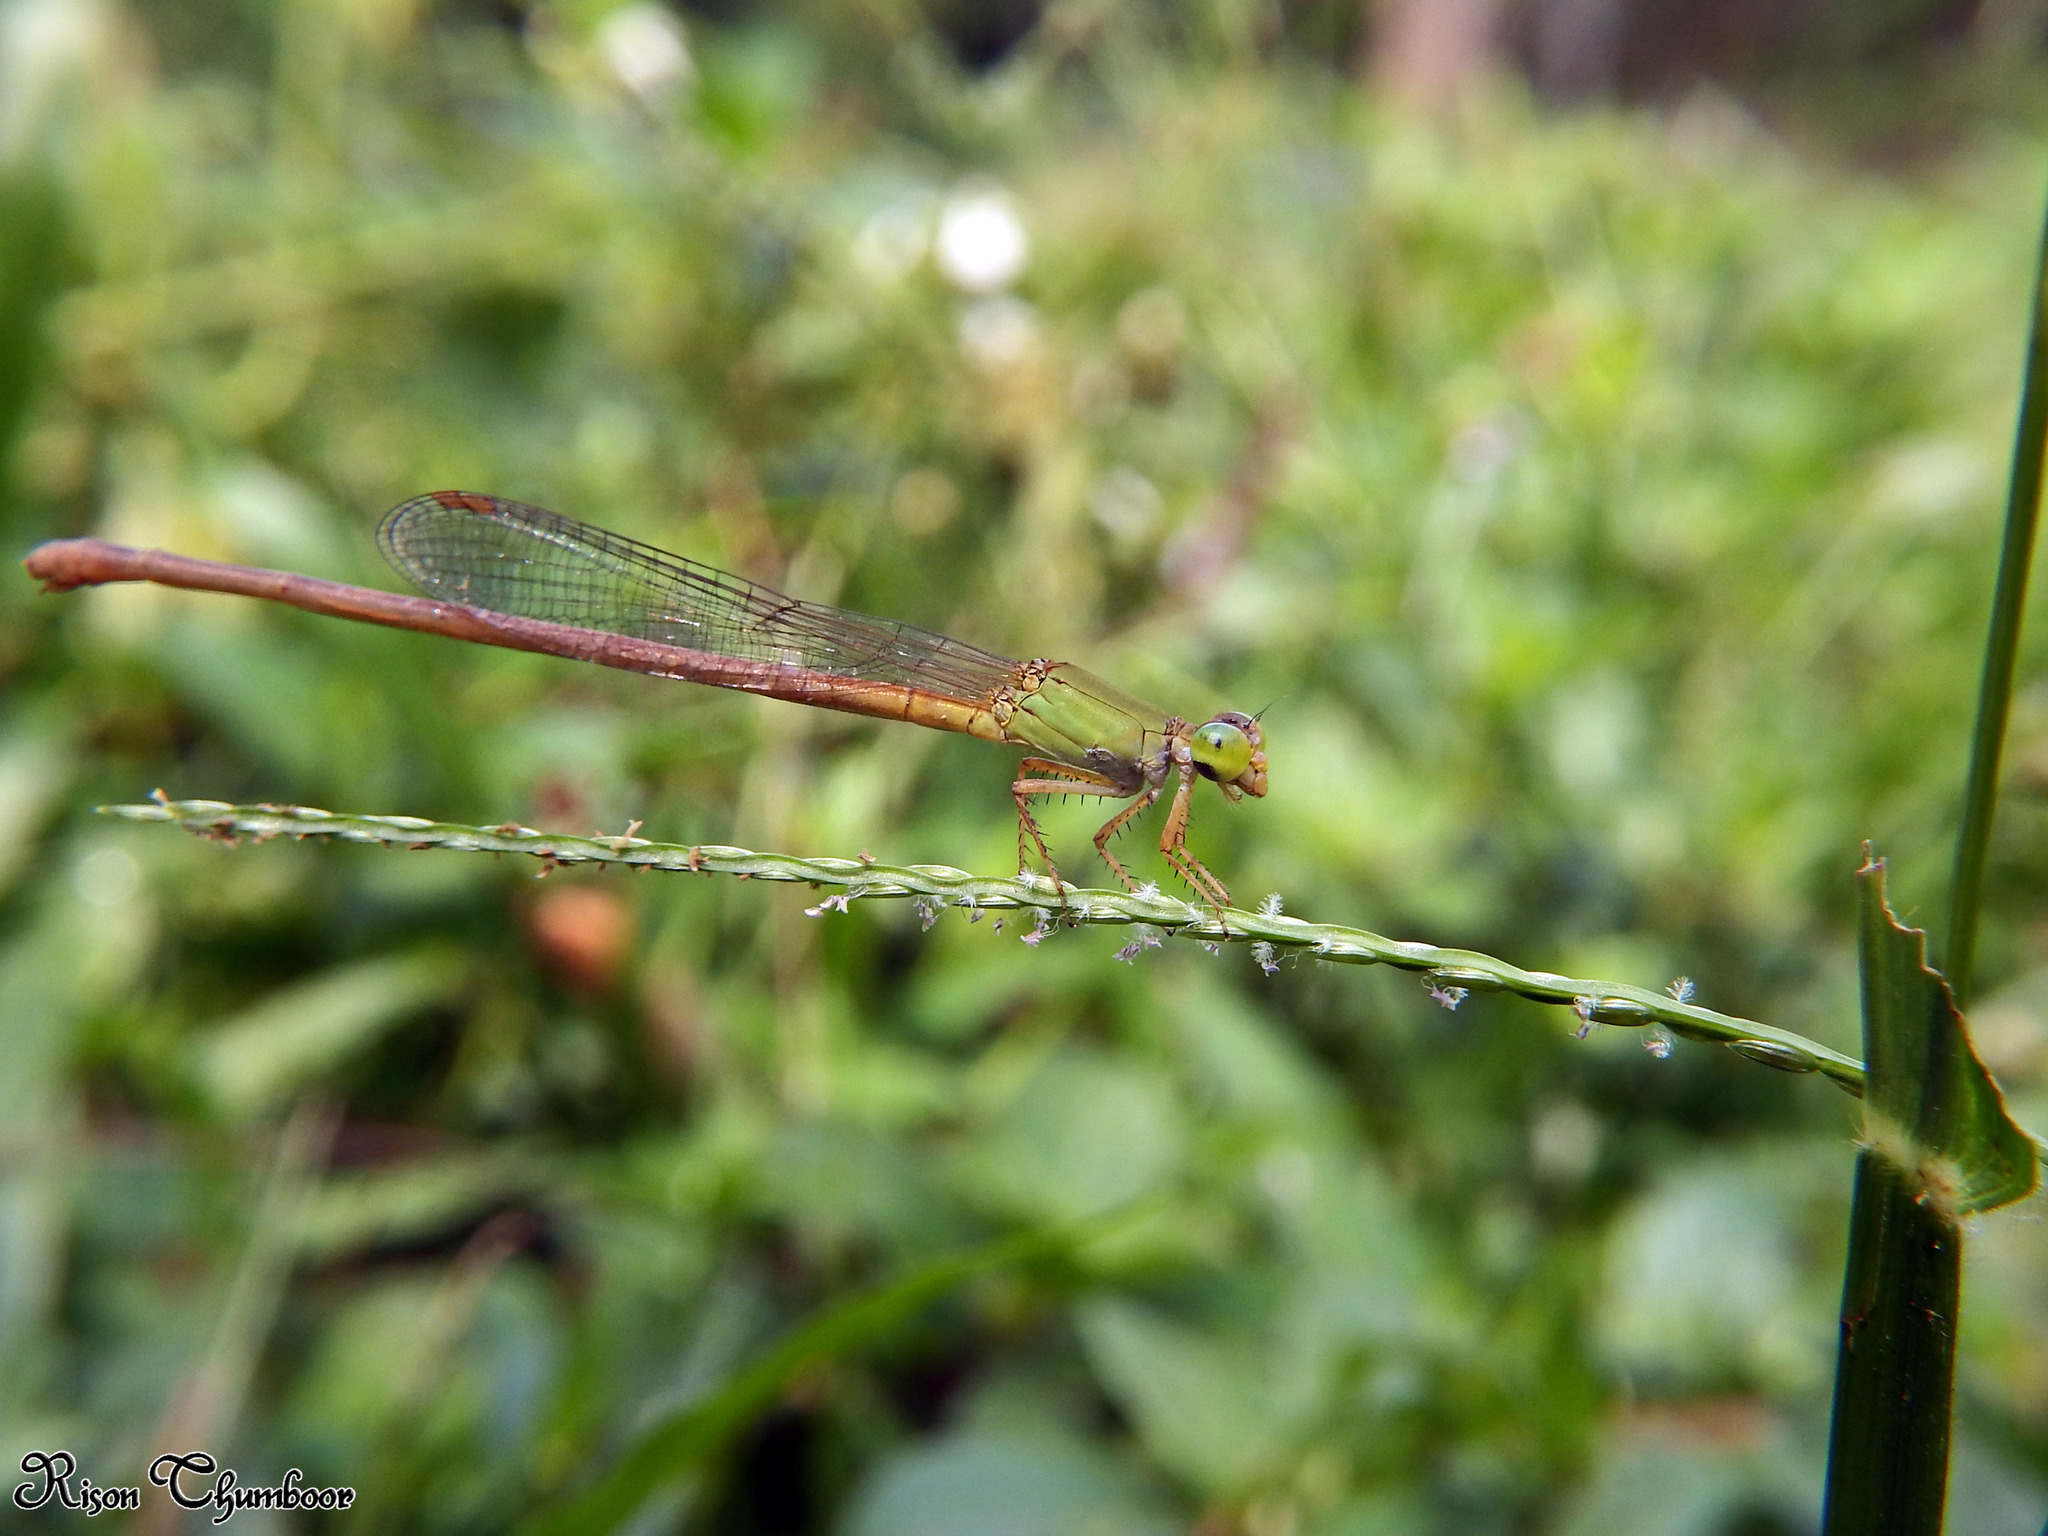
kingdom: Animalia
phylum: Arthropoda
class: Insecta
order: Odonata
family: Coenagrionidae
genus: Ceriagrion
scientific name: Ceriagrion rubiae
